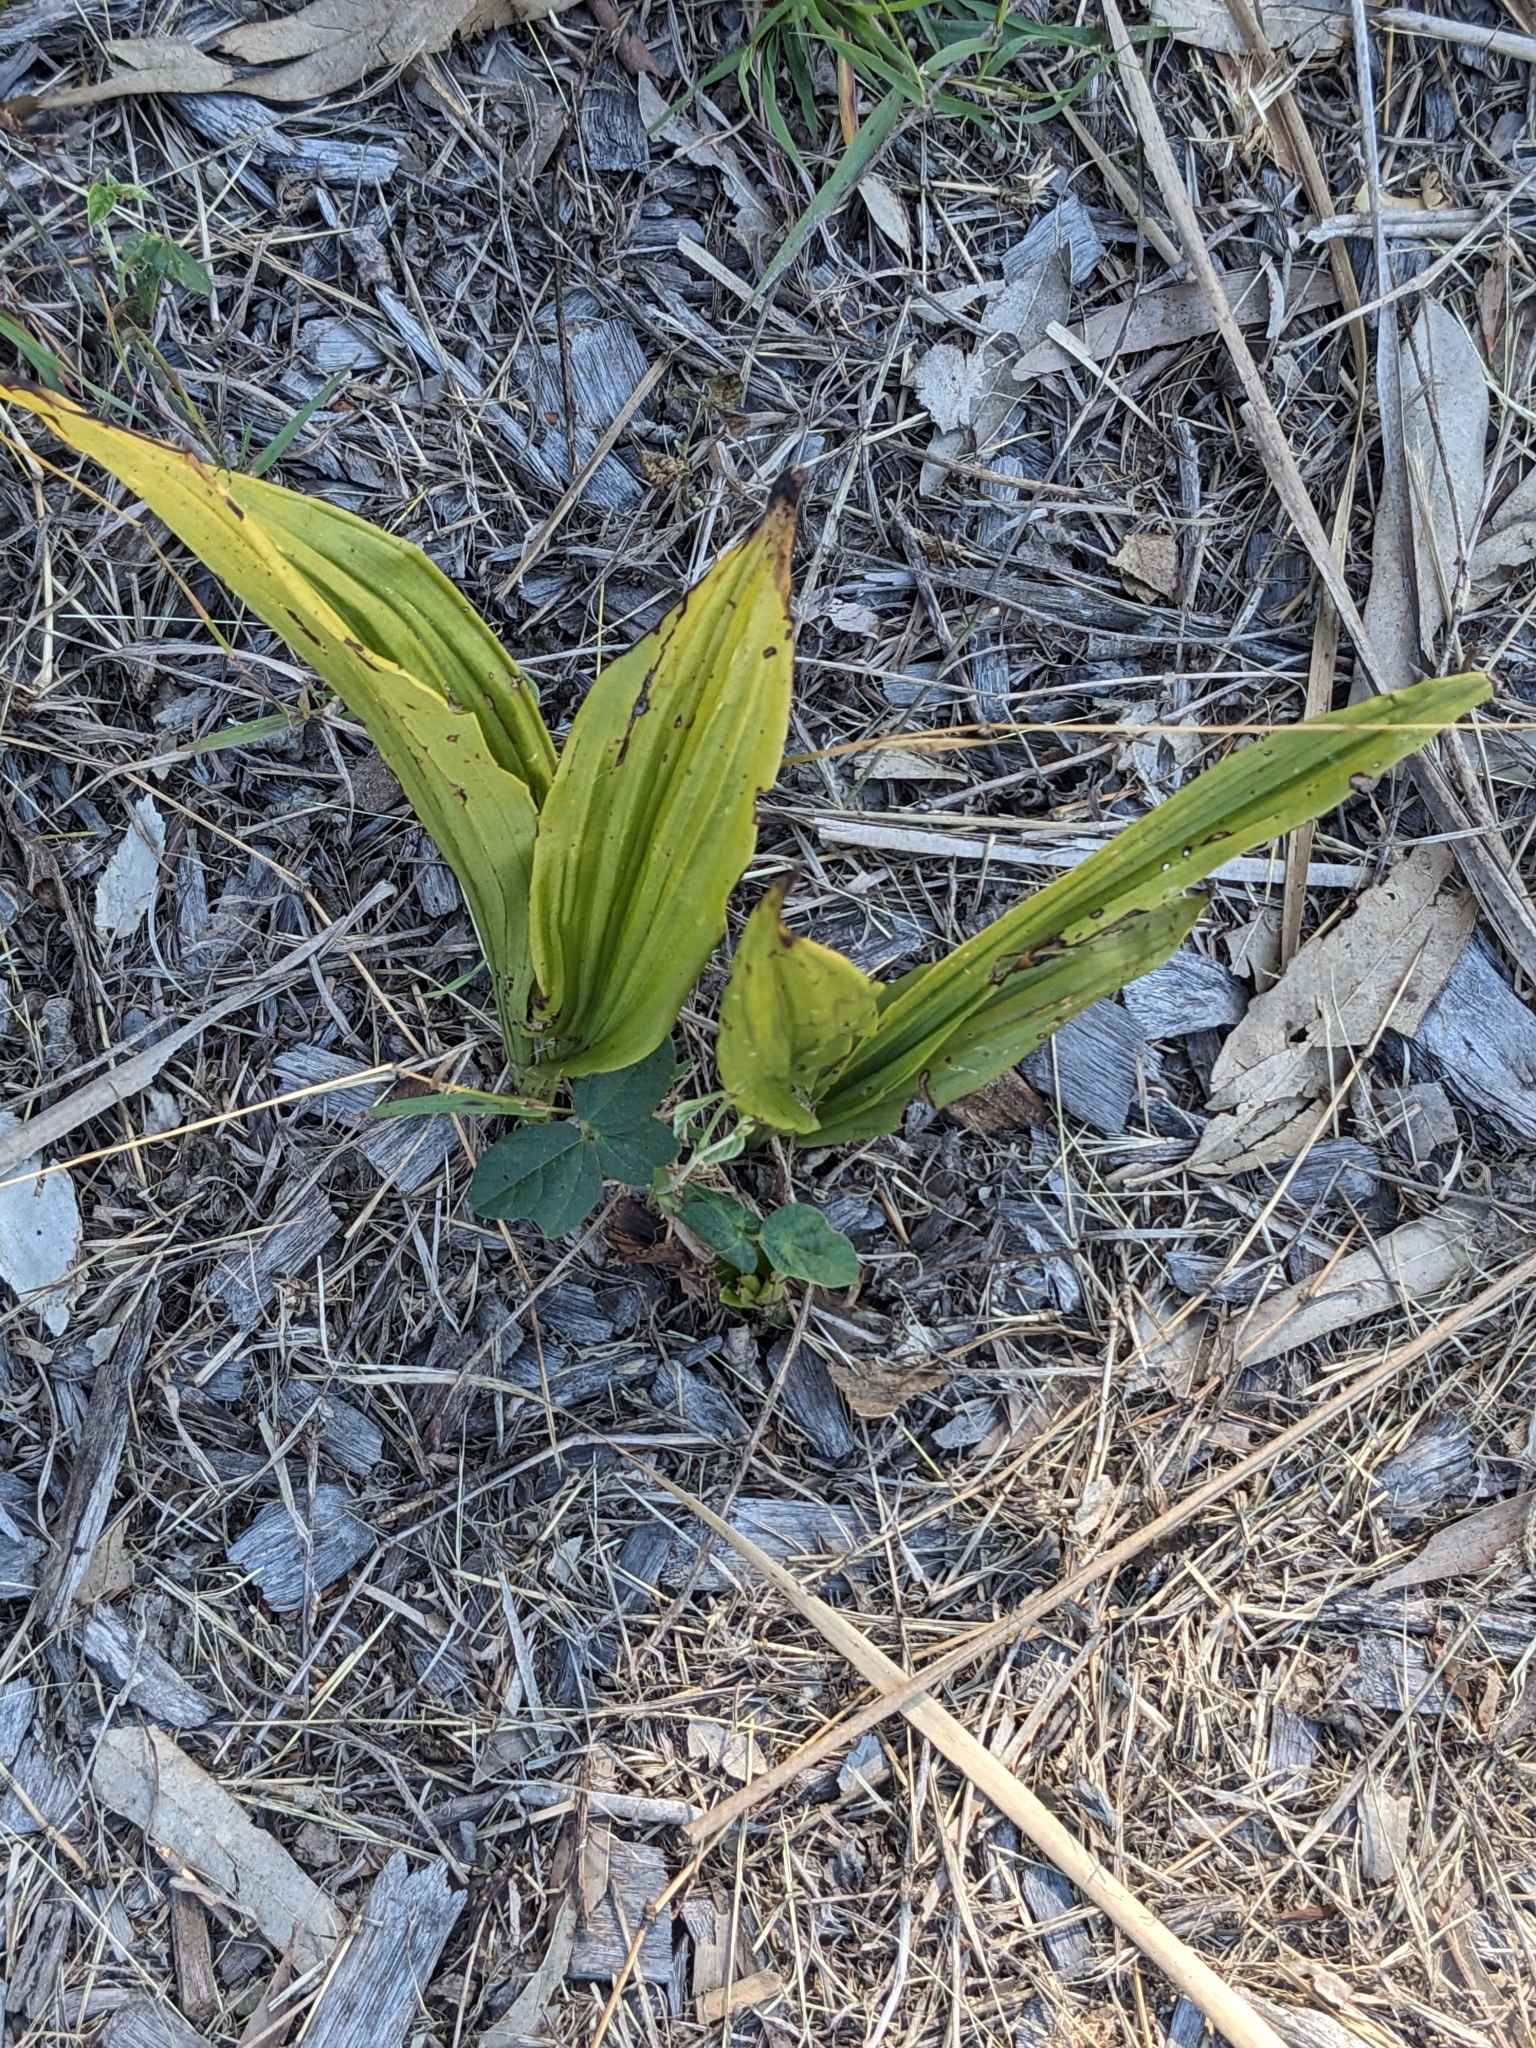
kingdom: Plantae
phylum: Tracheophyta
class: Liliopsida
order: Asparagales
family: Orchidaceae
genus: Eulophia
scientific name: Eulophia cernua
